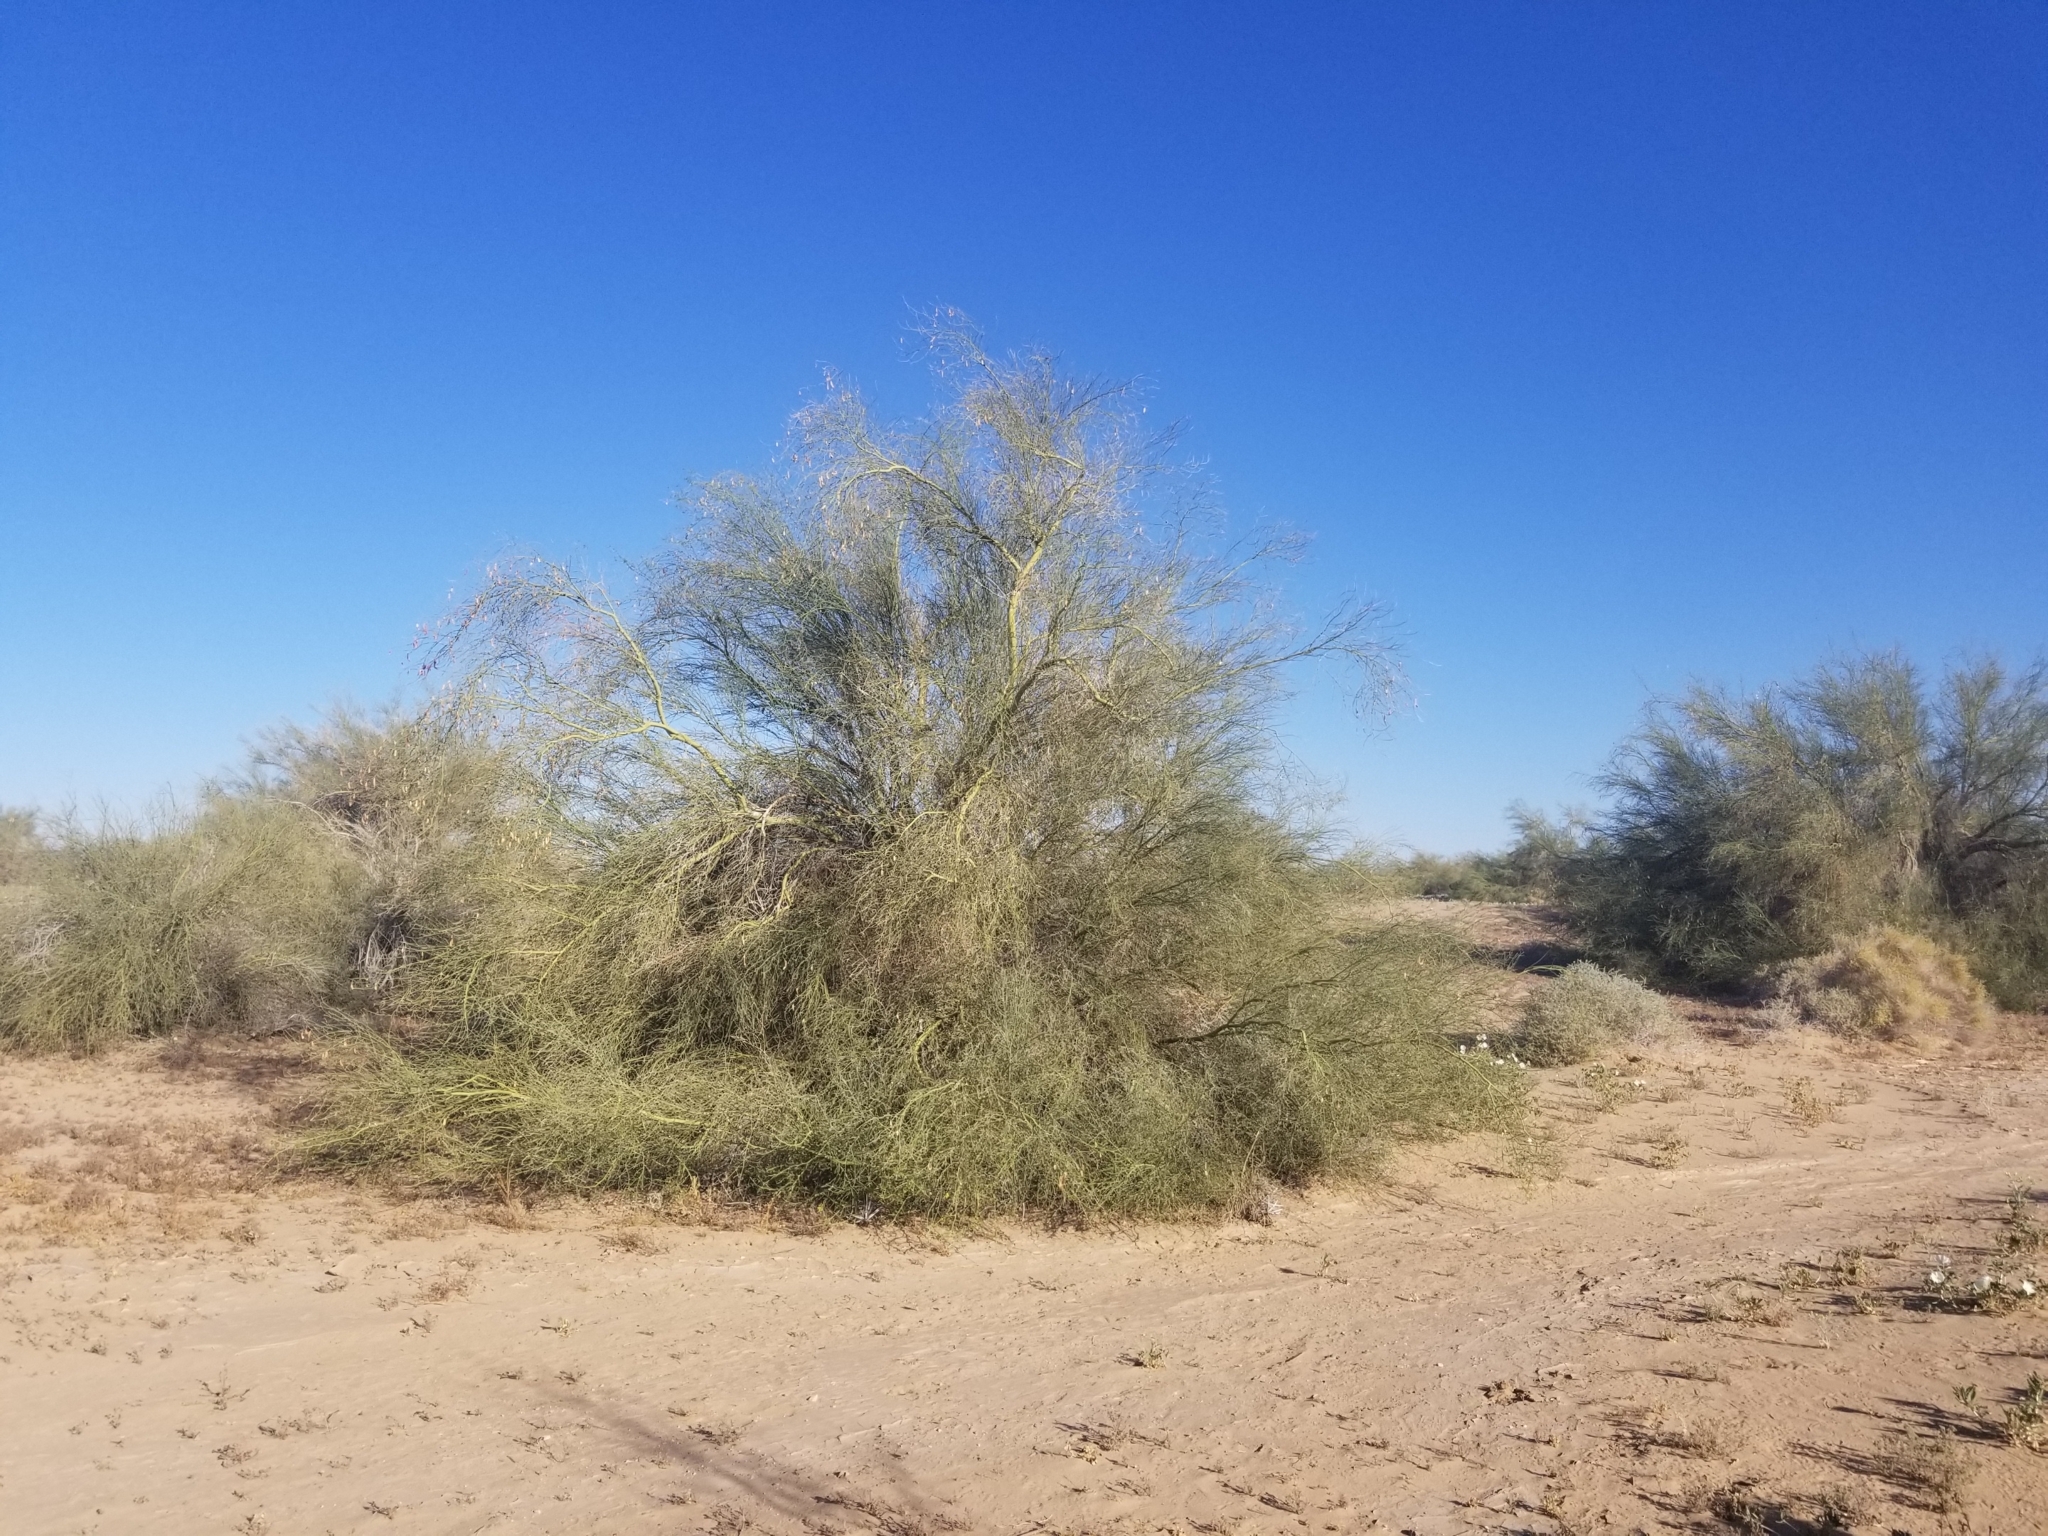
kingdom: Plantae
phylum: Tracheophyta
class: Magnoliopsida
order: Fabales
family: Fabaceae
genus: Parkinsonia
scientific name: Parkinsonia florida
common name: Blue paloverde
